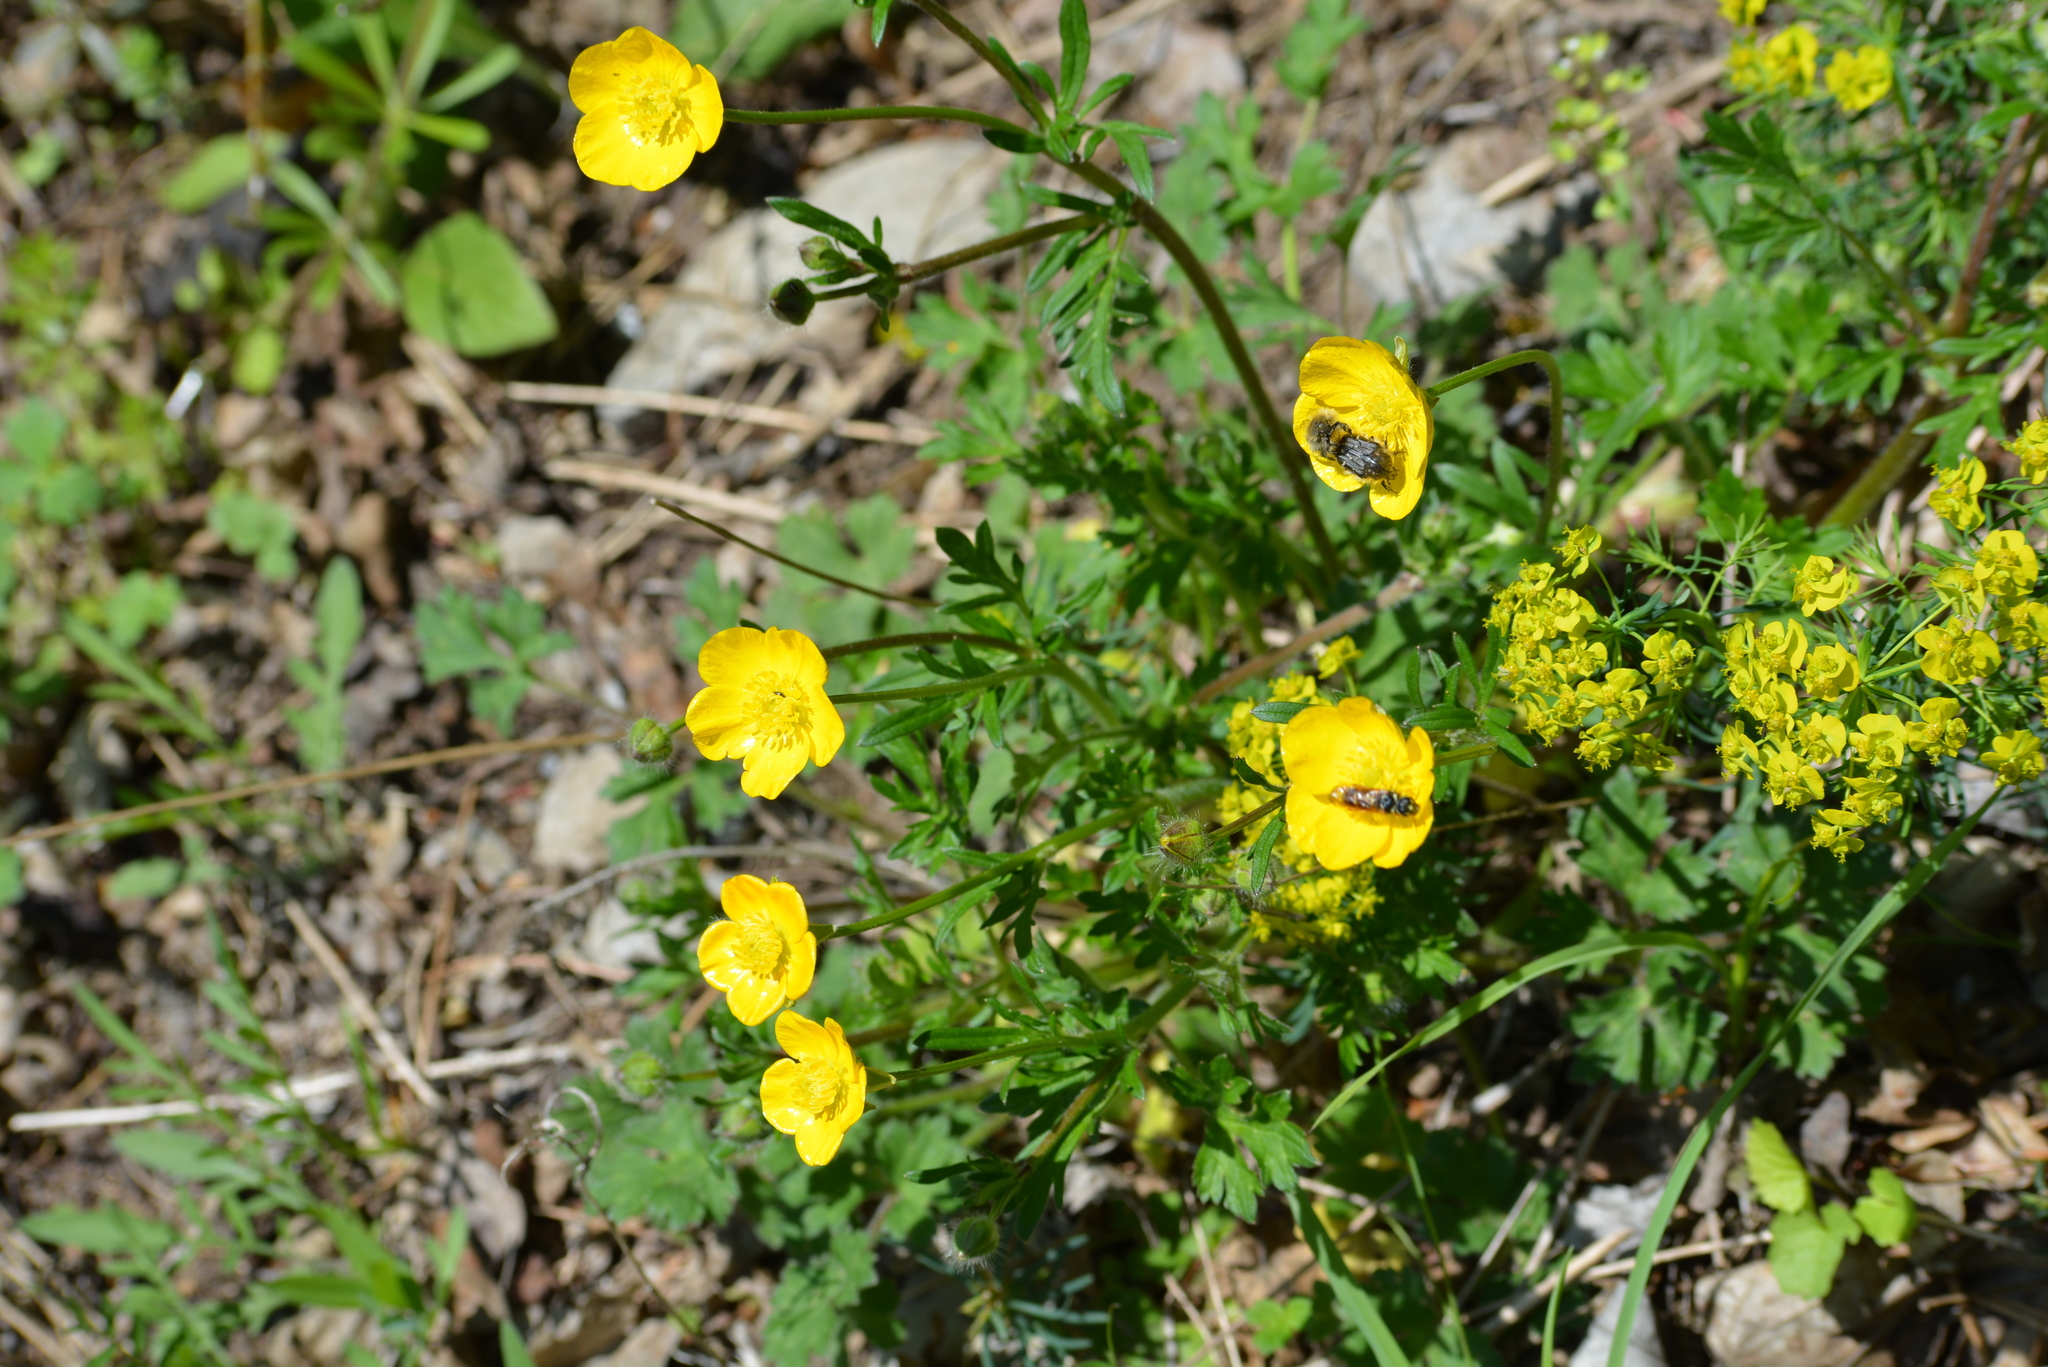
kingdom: Plantae
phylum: Tracheophyta
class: Magnoliopsida
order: Ranunculales
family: Ranunculaceae
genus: Ranunculus
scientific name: Ranunculus bulbosus
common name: Bulbous buttercup
